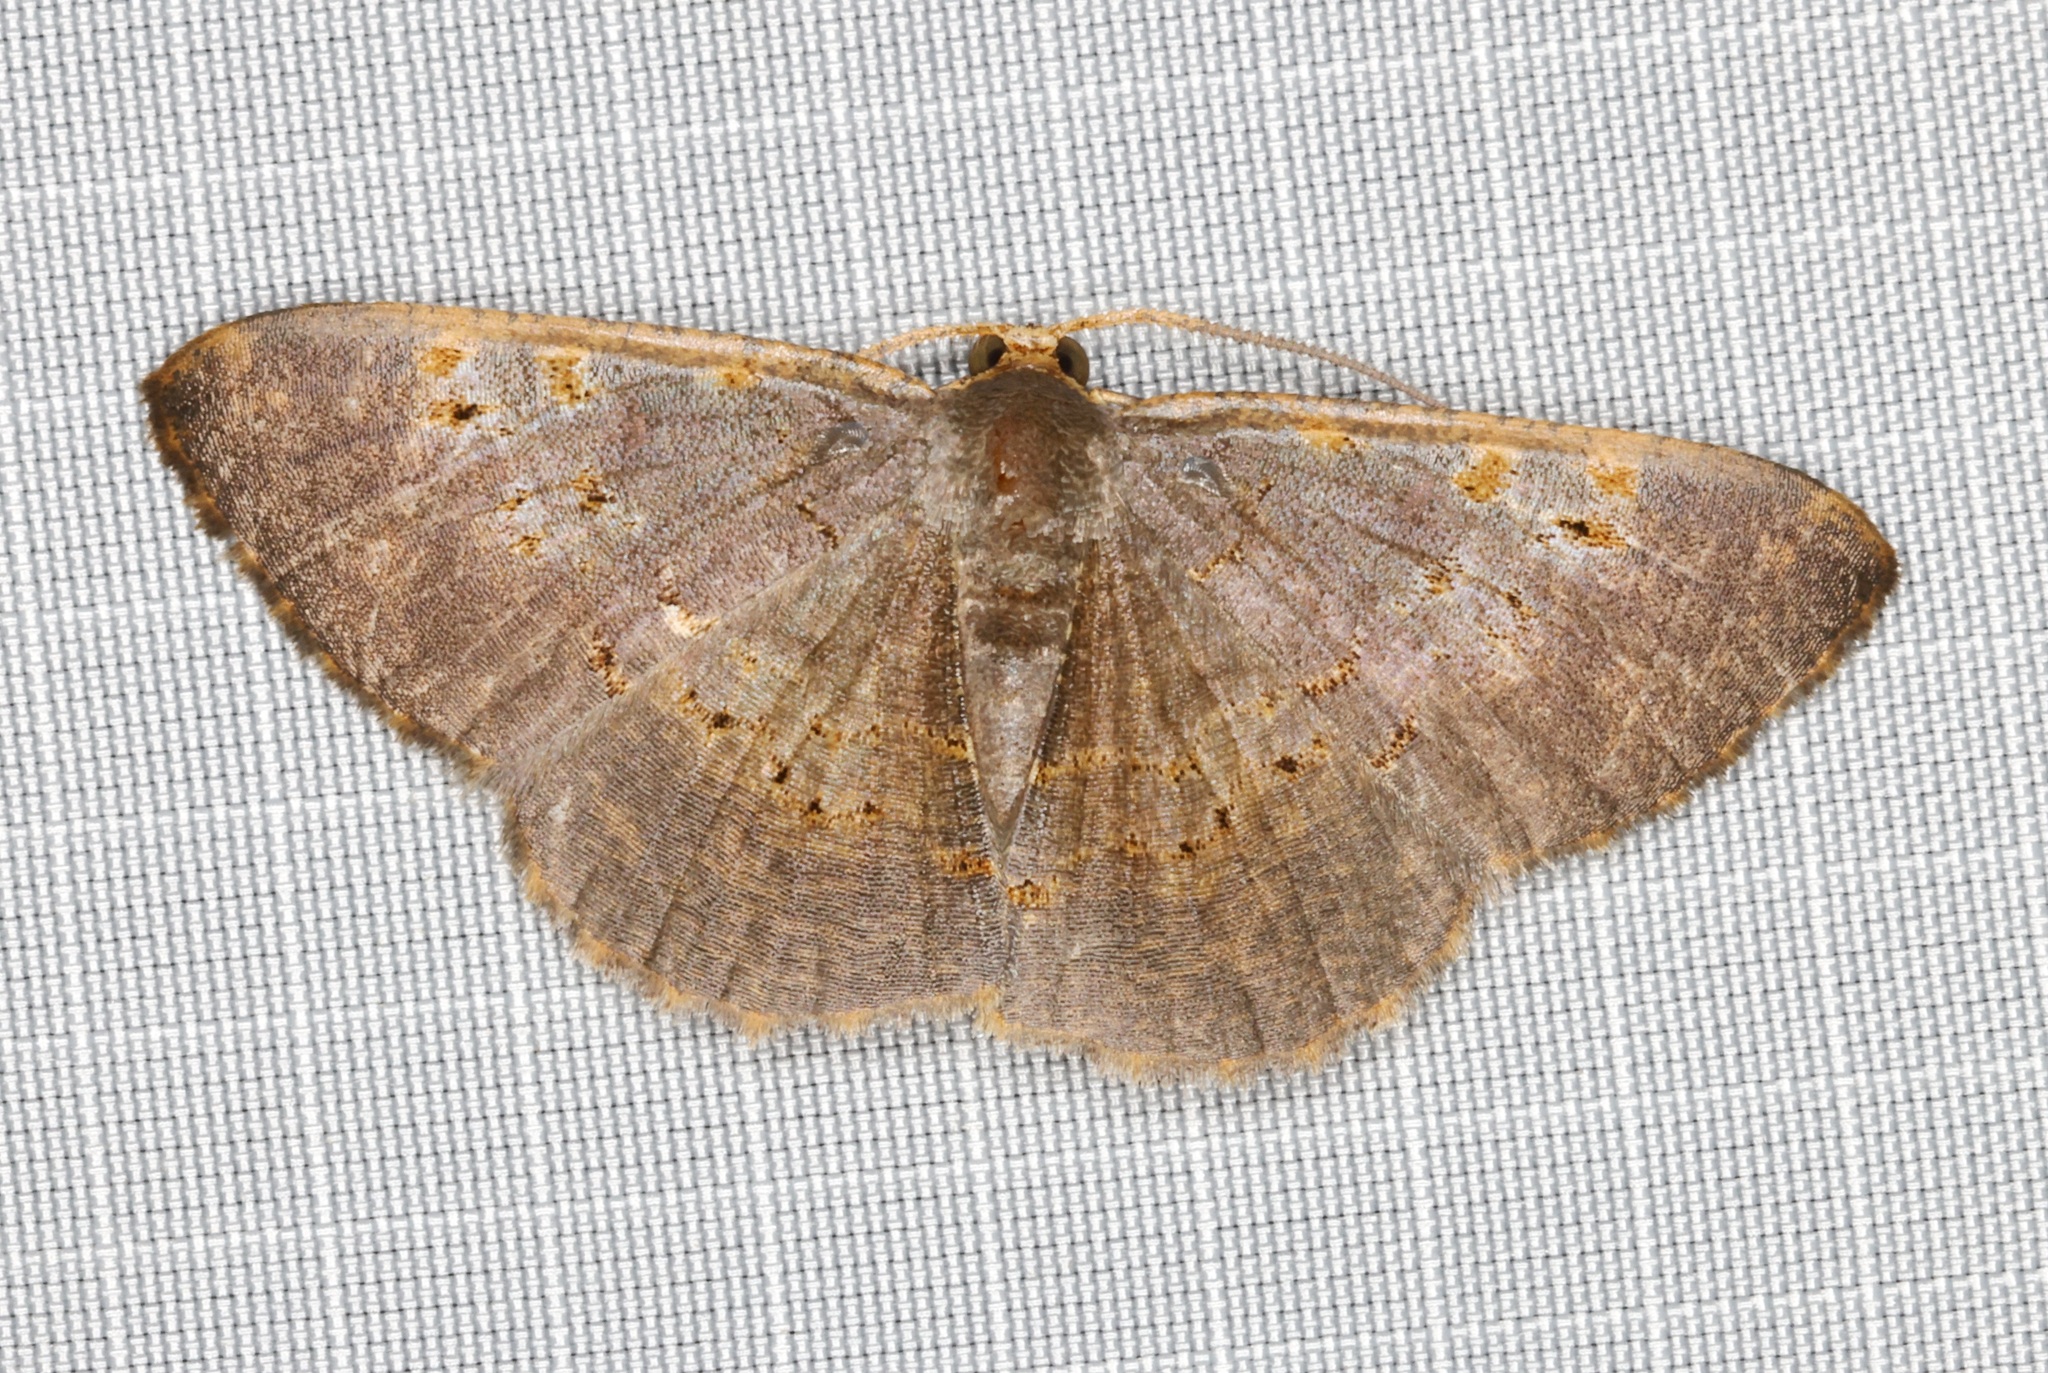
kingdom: Animalia
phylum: Arthropoda
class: Insecta
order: Lepidoptera
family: Geometridae
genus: Peratophyga
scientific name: Peratophyga crista
